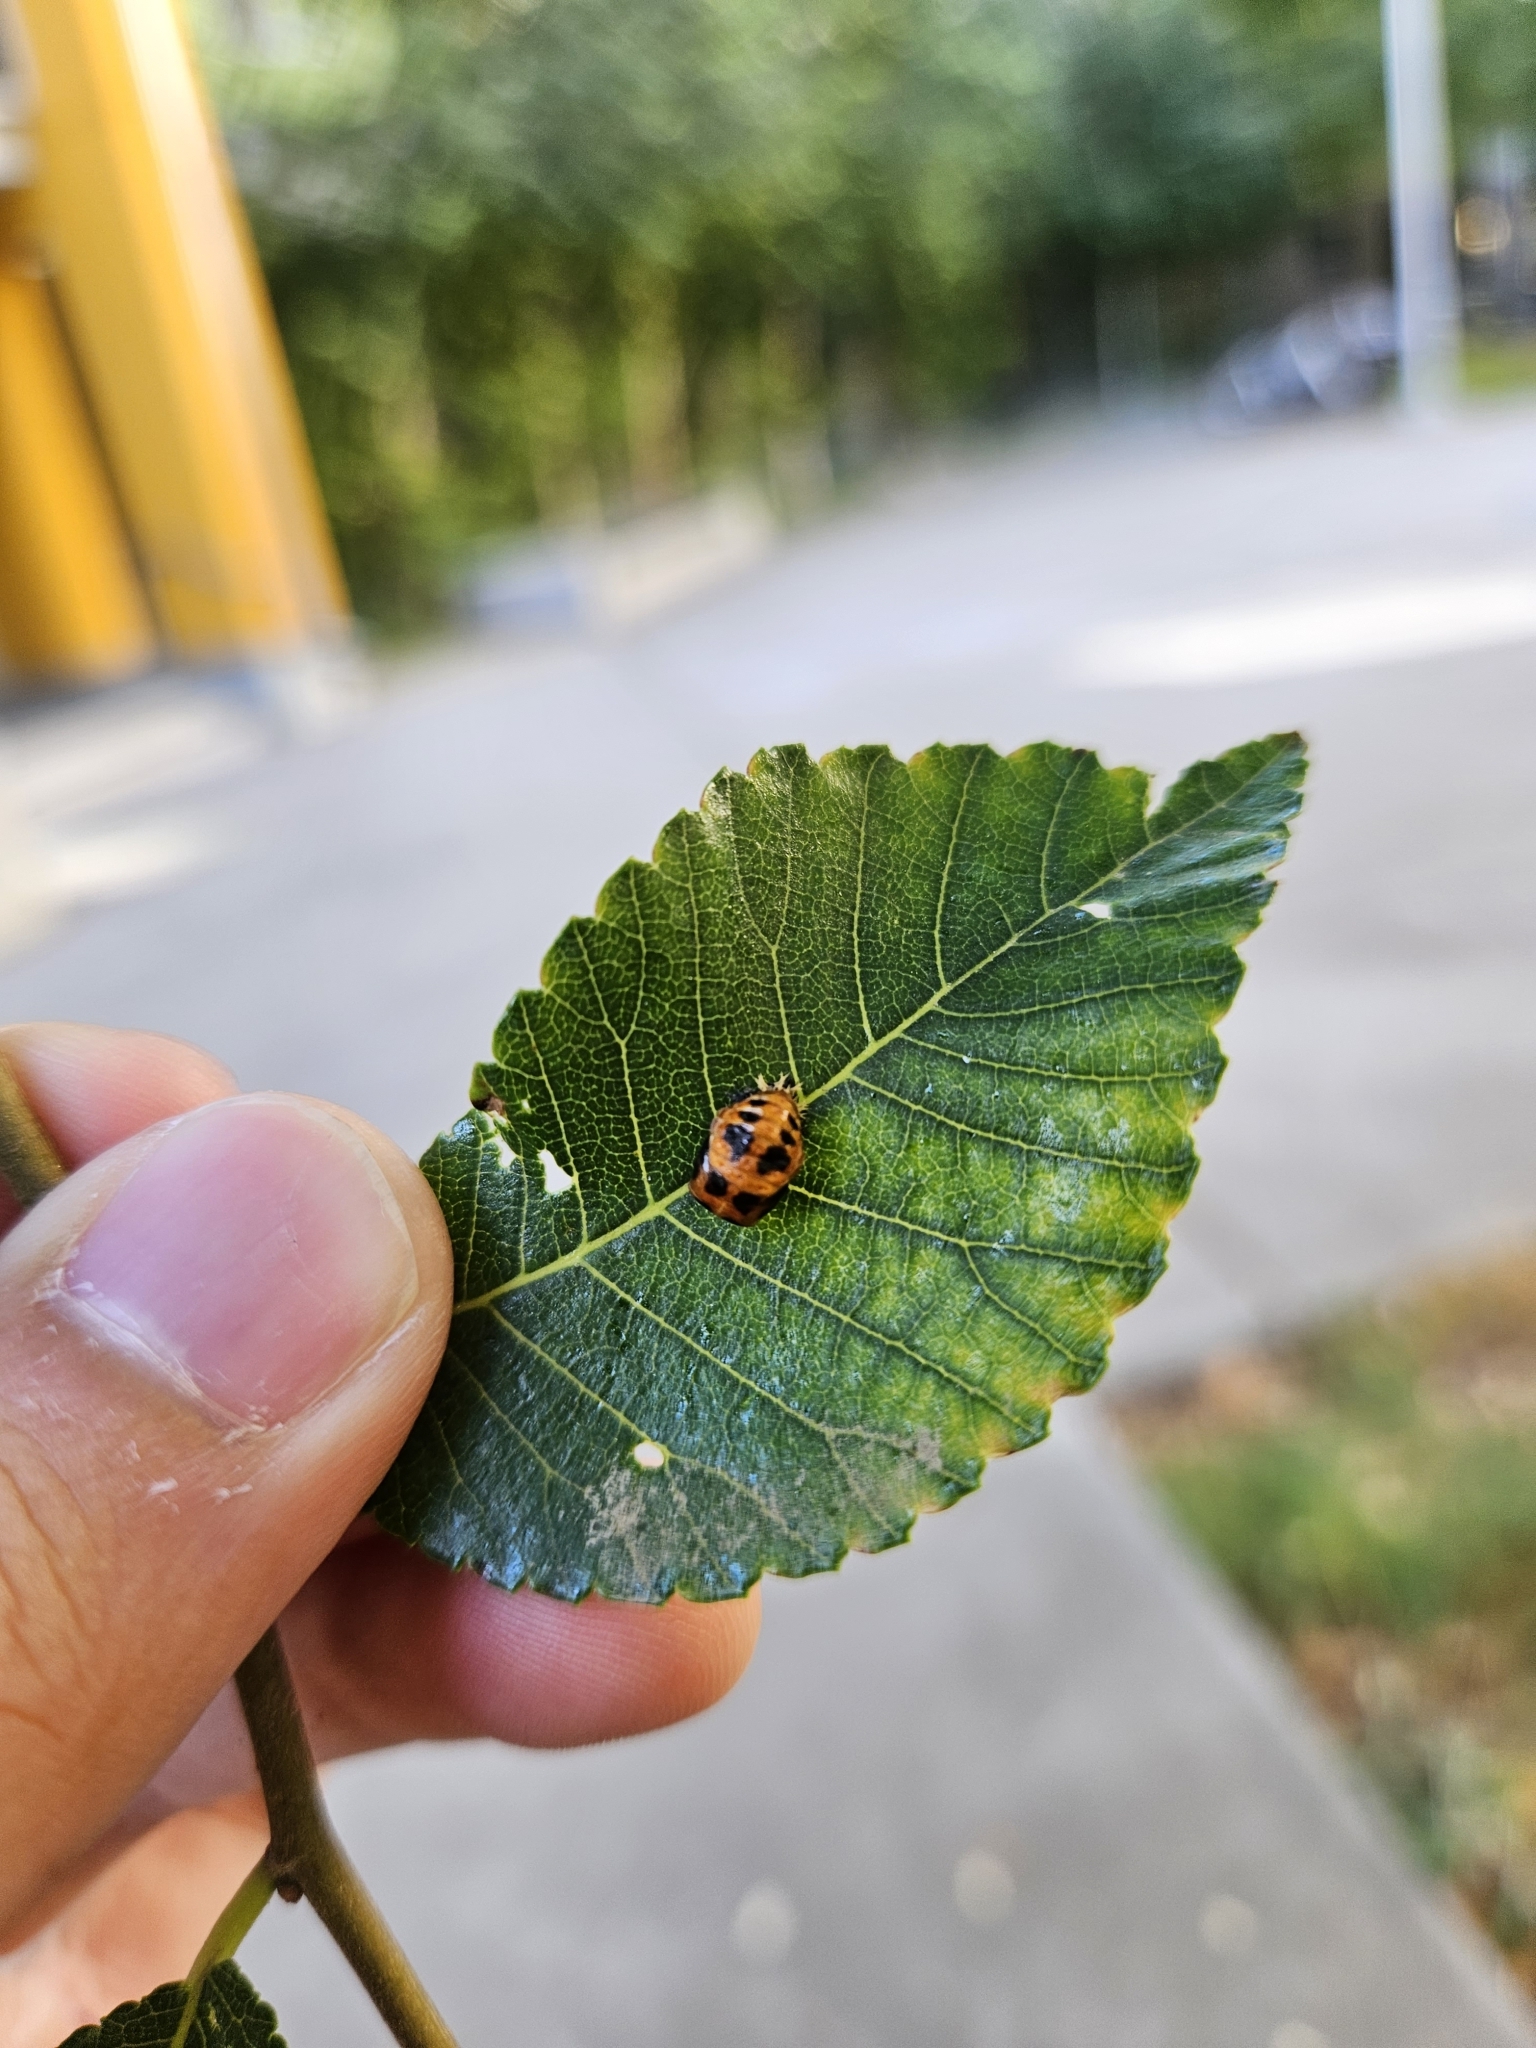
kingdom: Animalia
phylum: Arthropoda
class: Insecta
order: Coleoptera
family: Coccinellidae
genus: Harmonia
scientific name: Harmonia axyridis
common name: Harlequin ladybird
